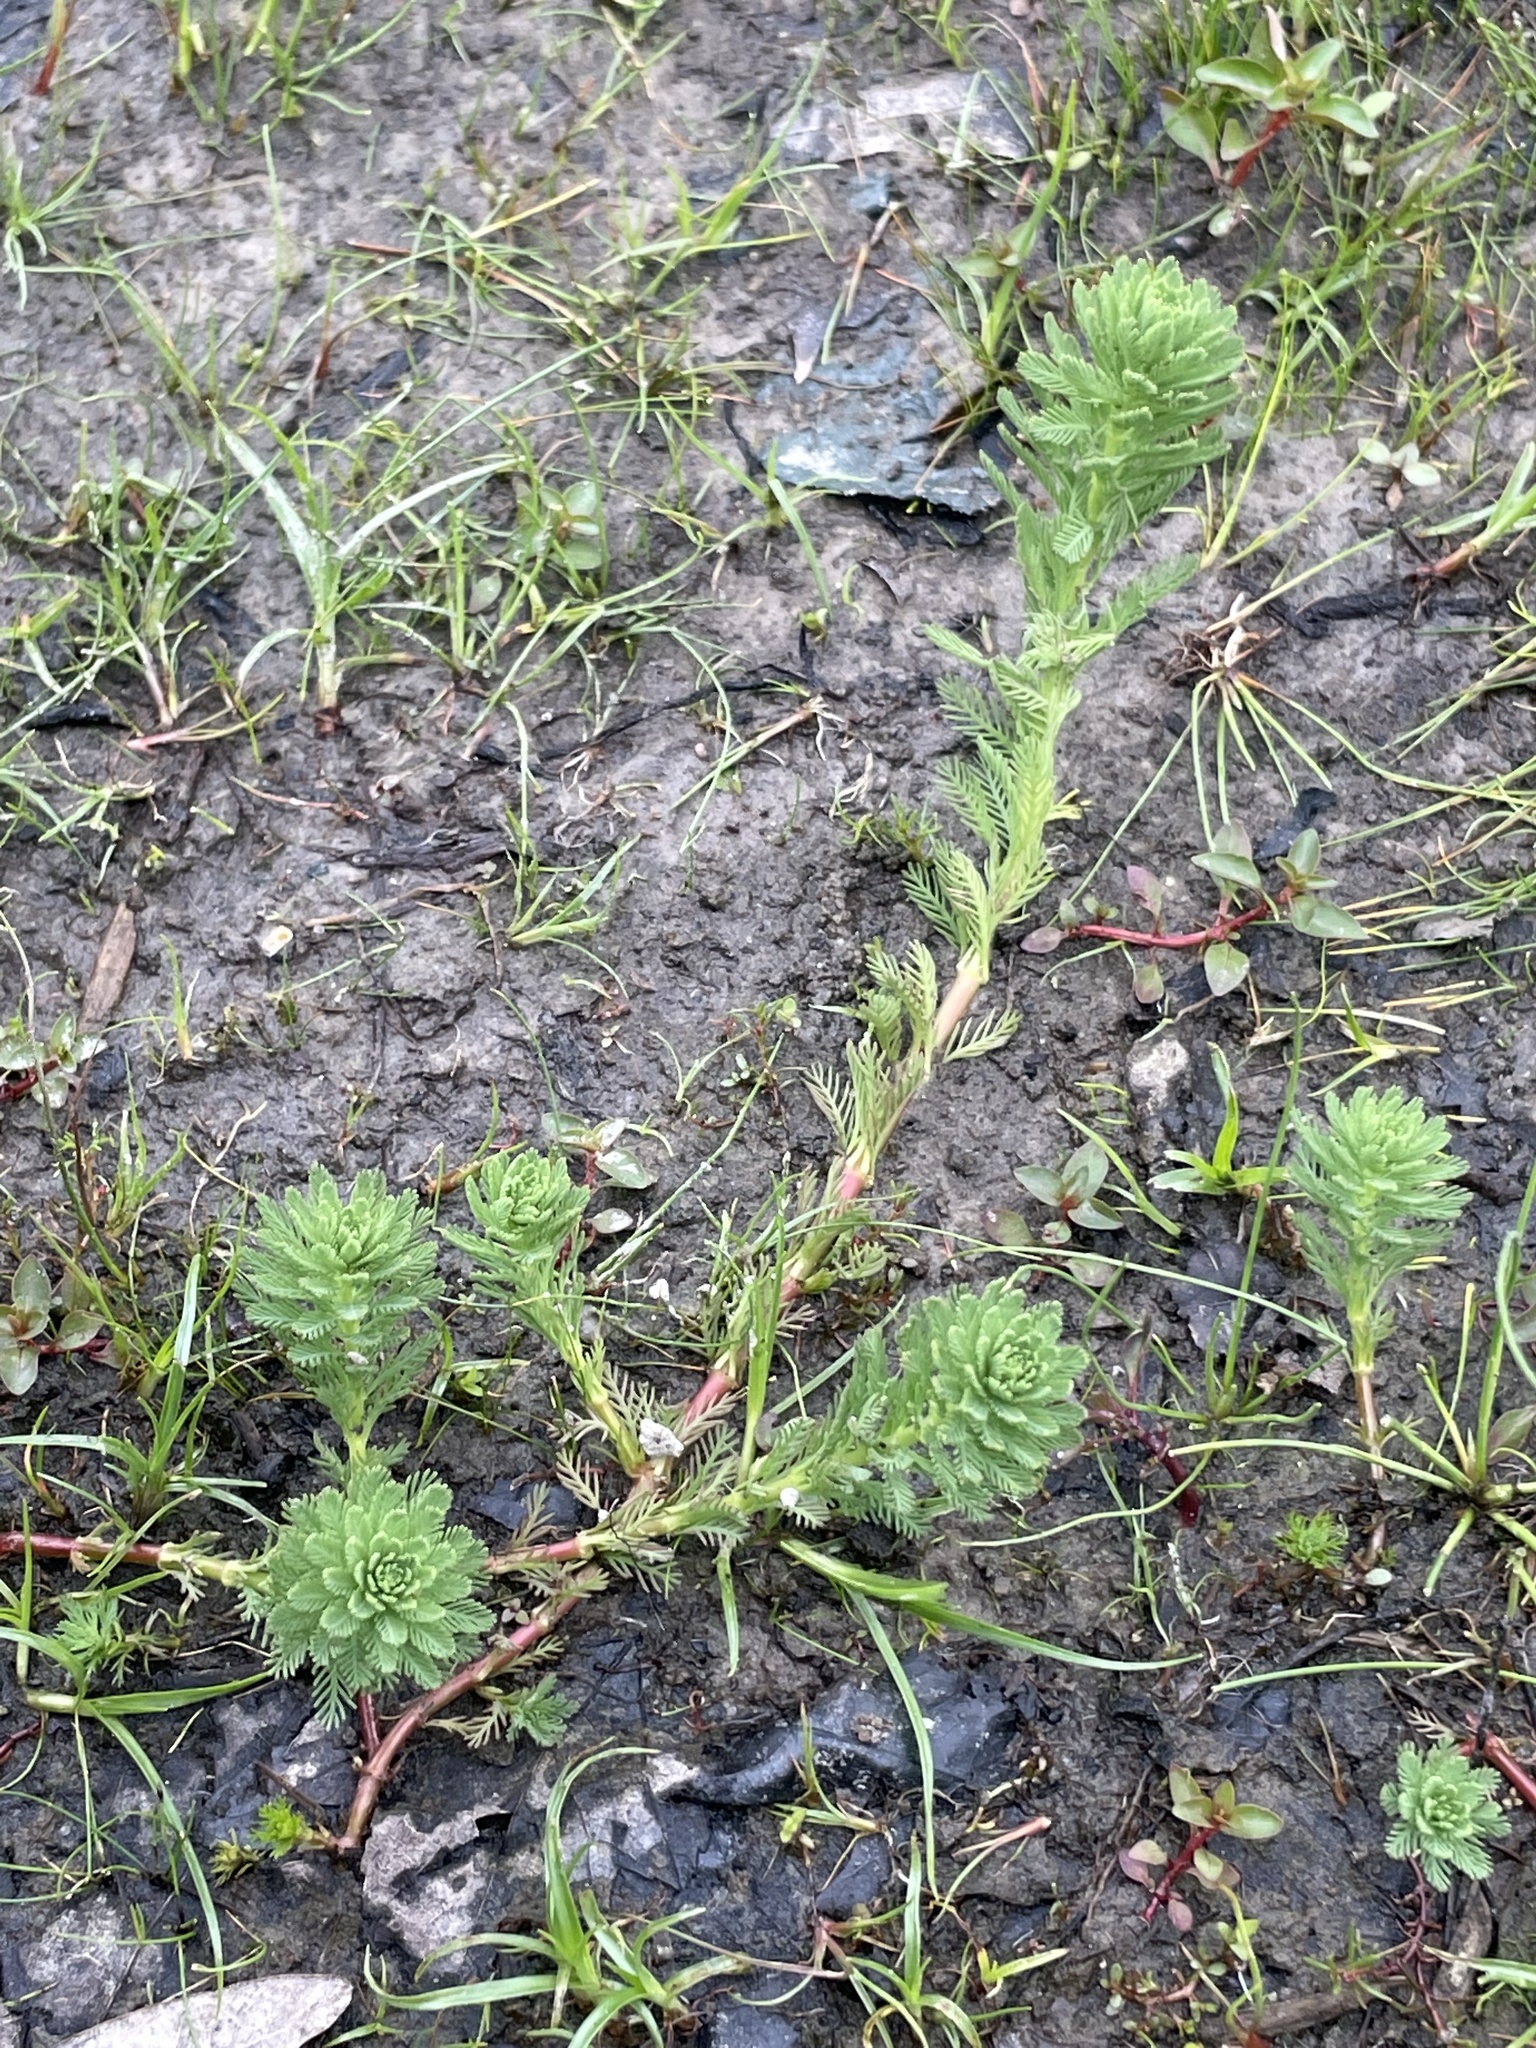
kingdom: Plantae
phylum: Tracheophyta
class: Magnoliopsida
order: Saxifragales
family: Haloragaceae
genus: Myriophyllum
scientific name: Myriophyllum aquaticum
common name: Parrot's feather
